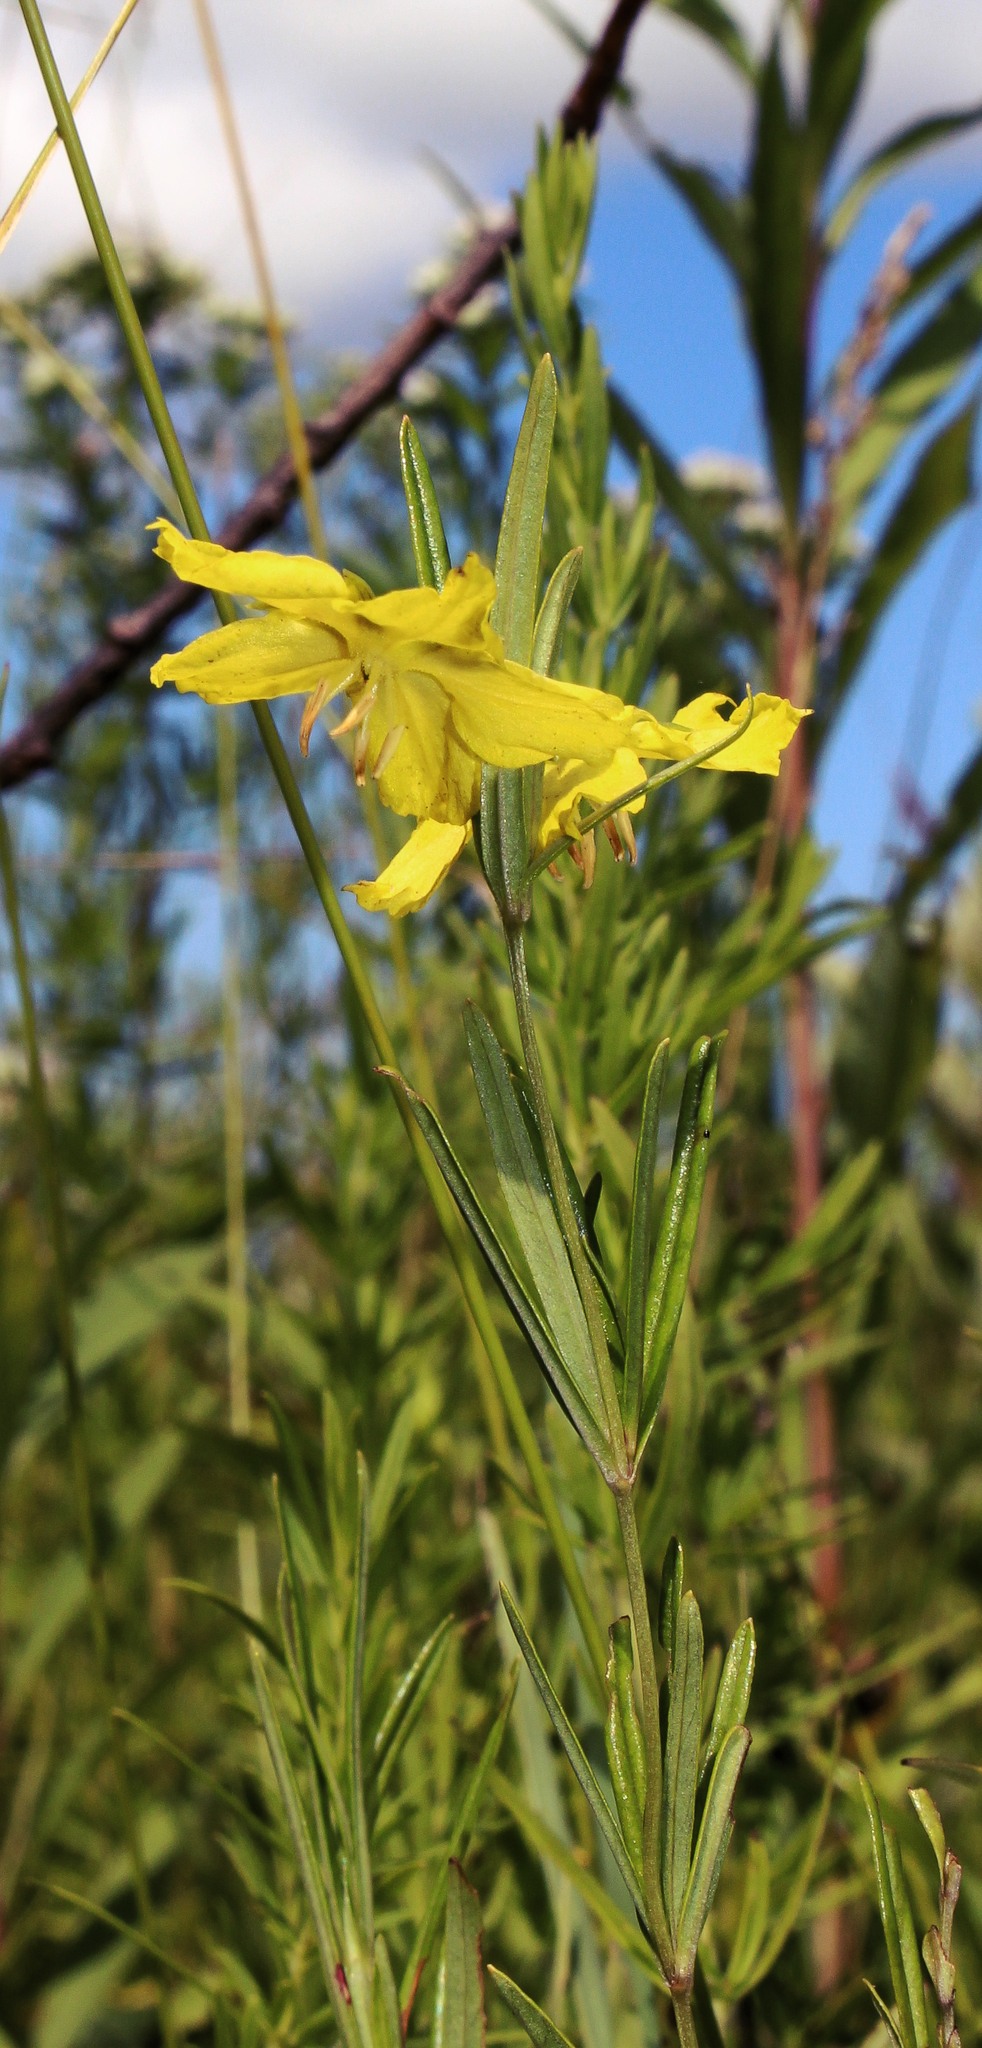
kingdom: Plantae
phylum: Tracheophyta
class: Magnoliopsida
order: Ericales
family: Primulaceae
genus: Lysimachia
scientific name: Lysimachia quadriflora
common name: Four-flowered loosestrife
